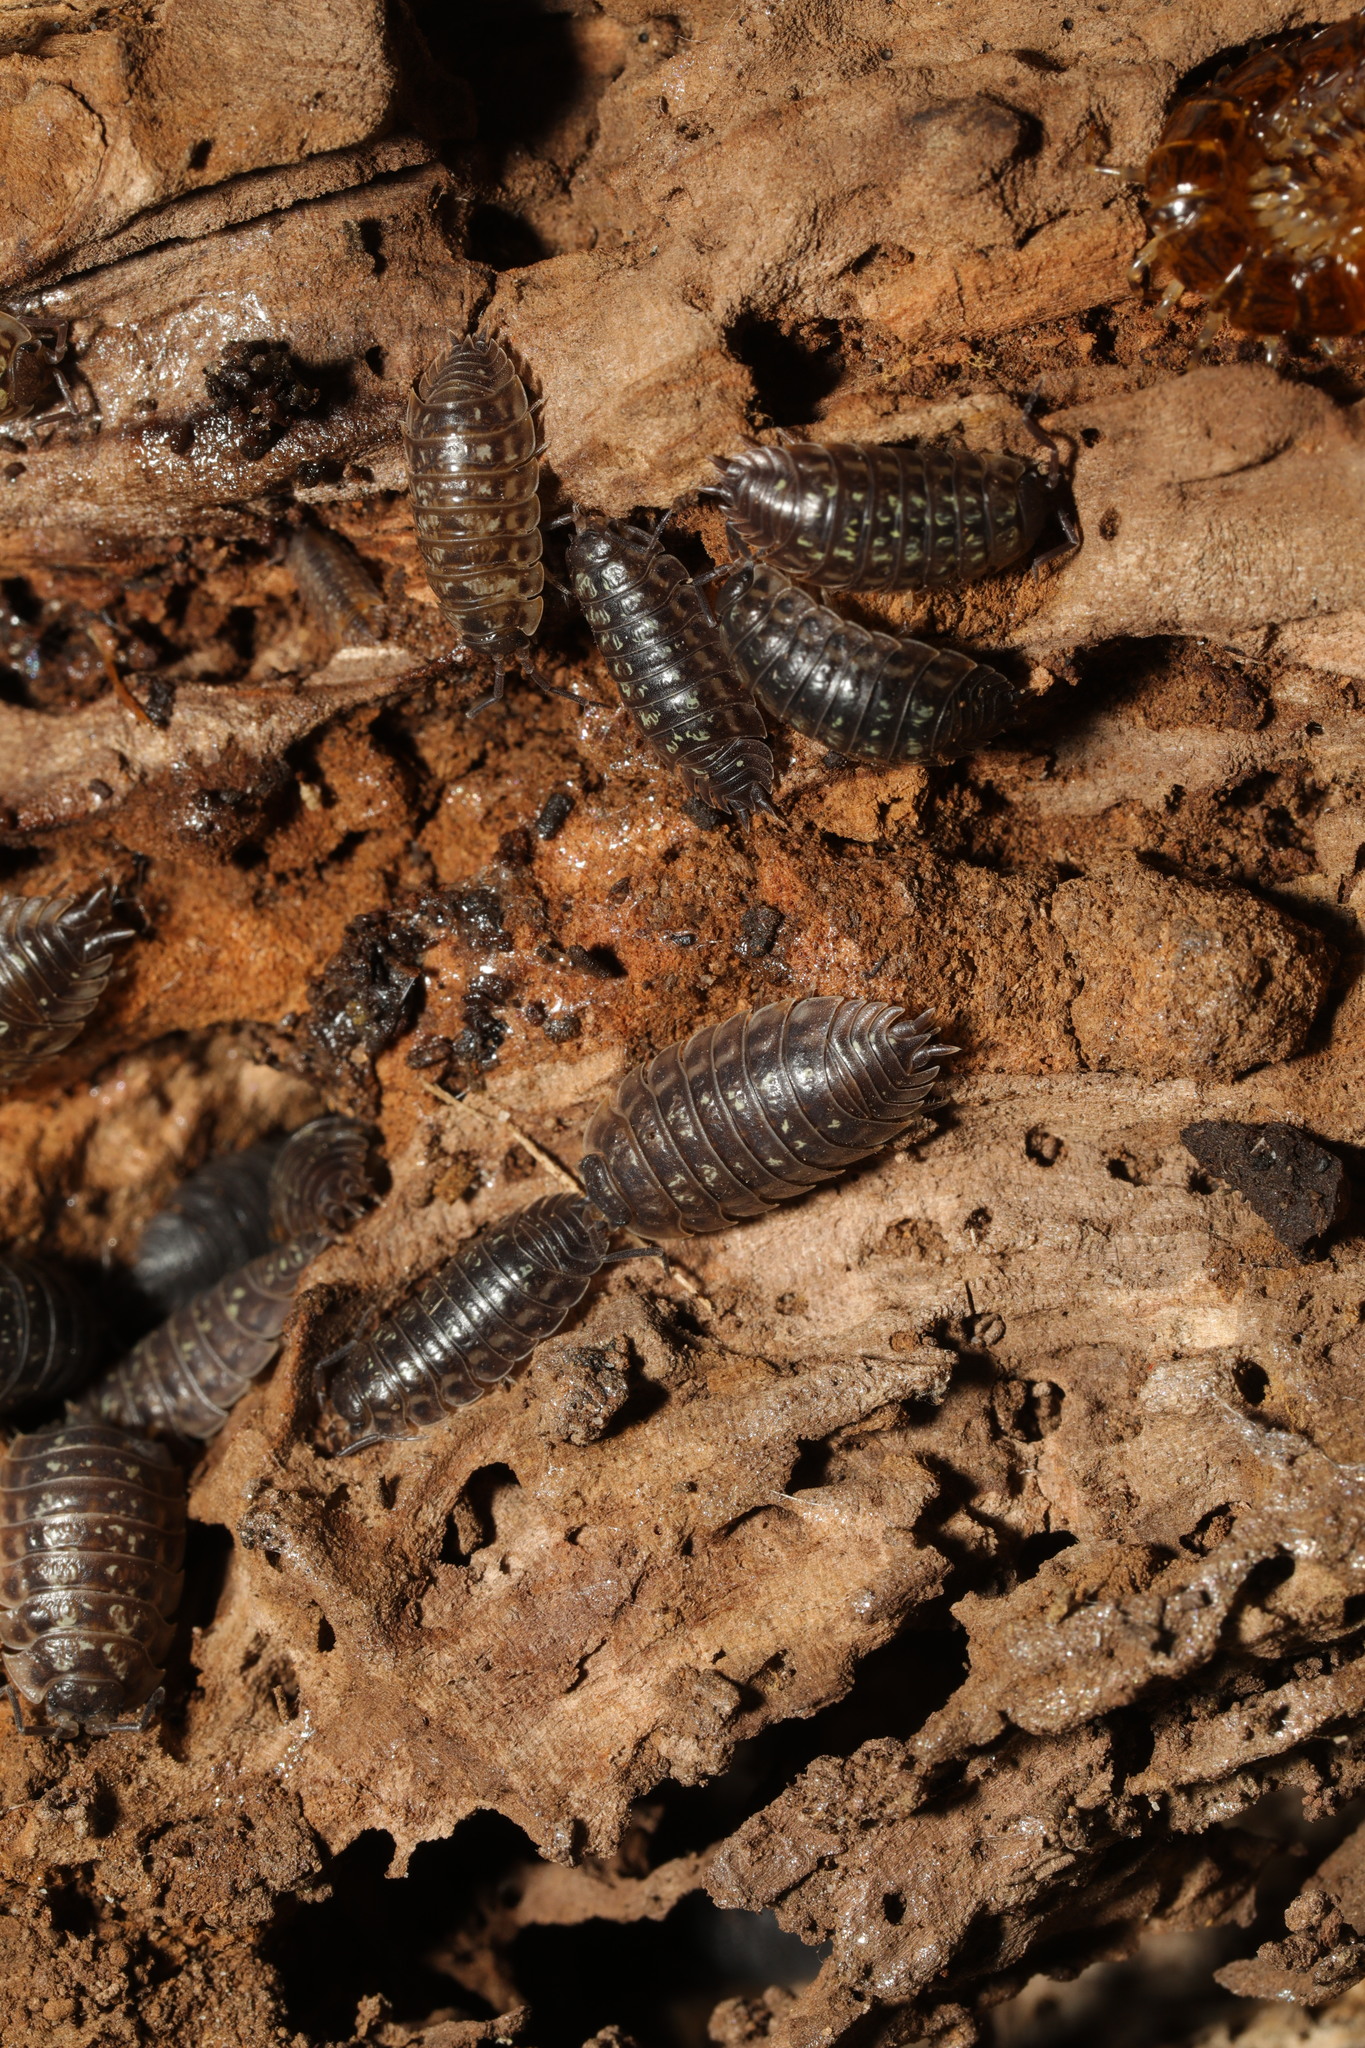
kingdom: Animalia
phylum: Arthropoda
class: Malacostraca
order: Isopoda
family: Oniscidae
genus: Oniscus
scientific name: Oniscus asellus
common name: Common shiny woodlouse
